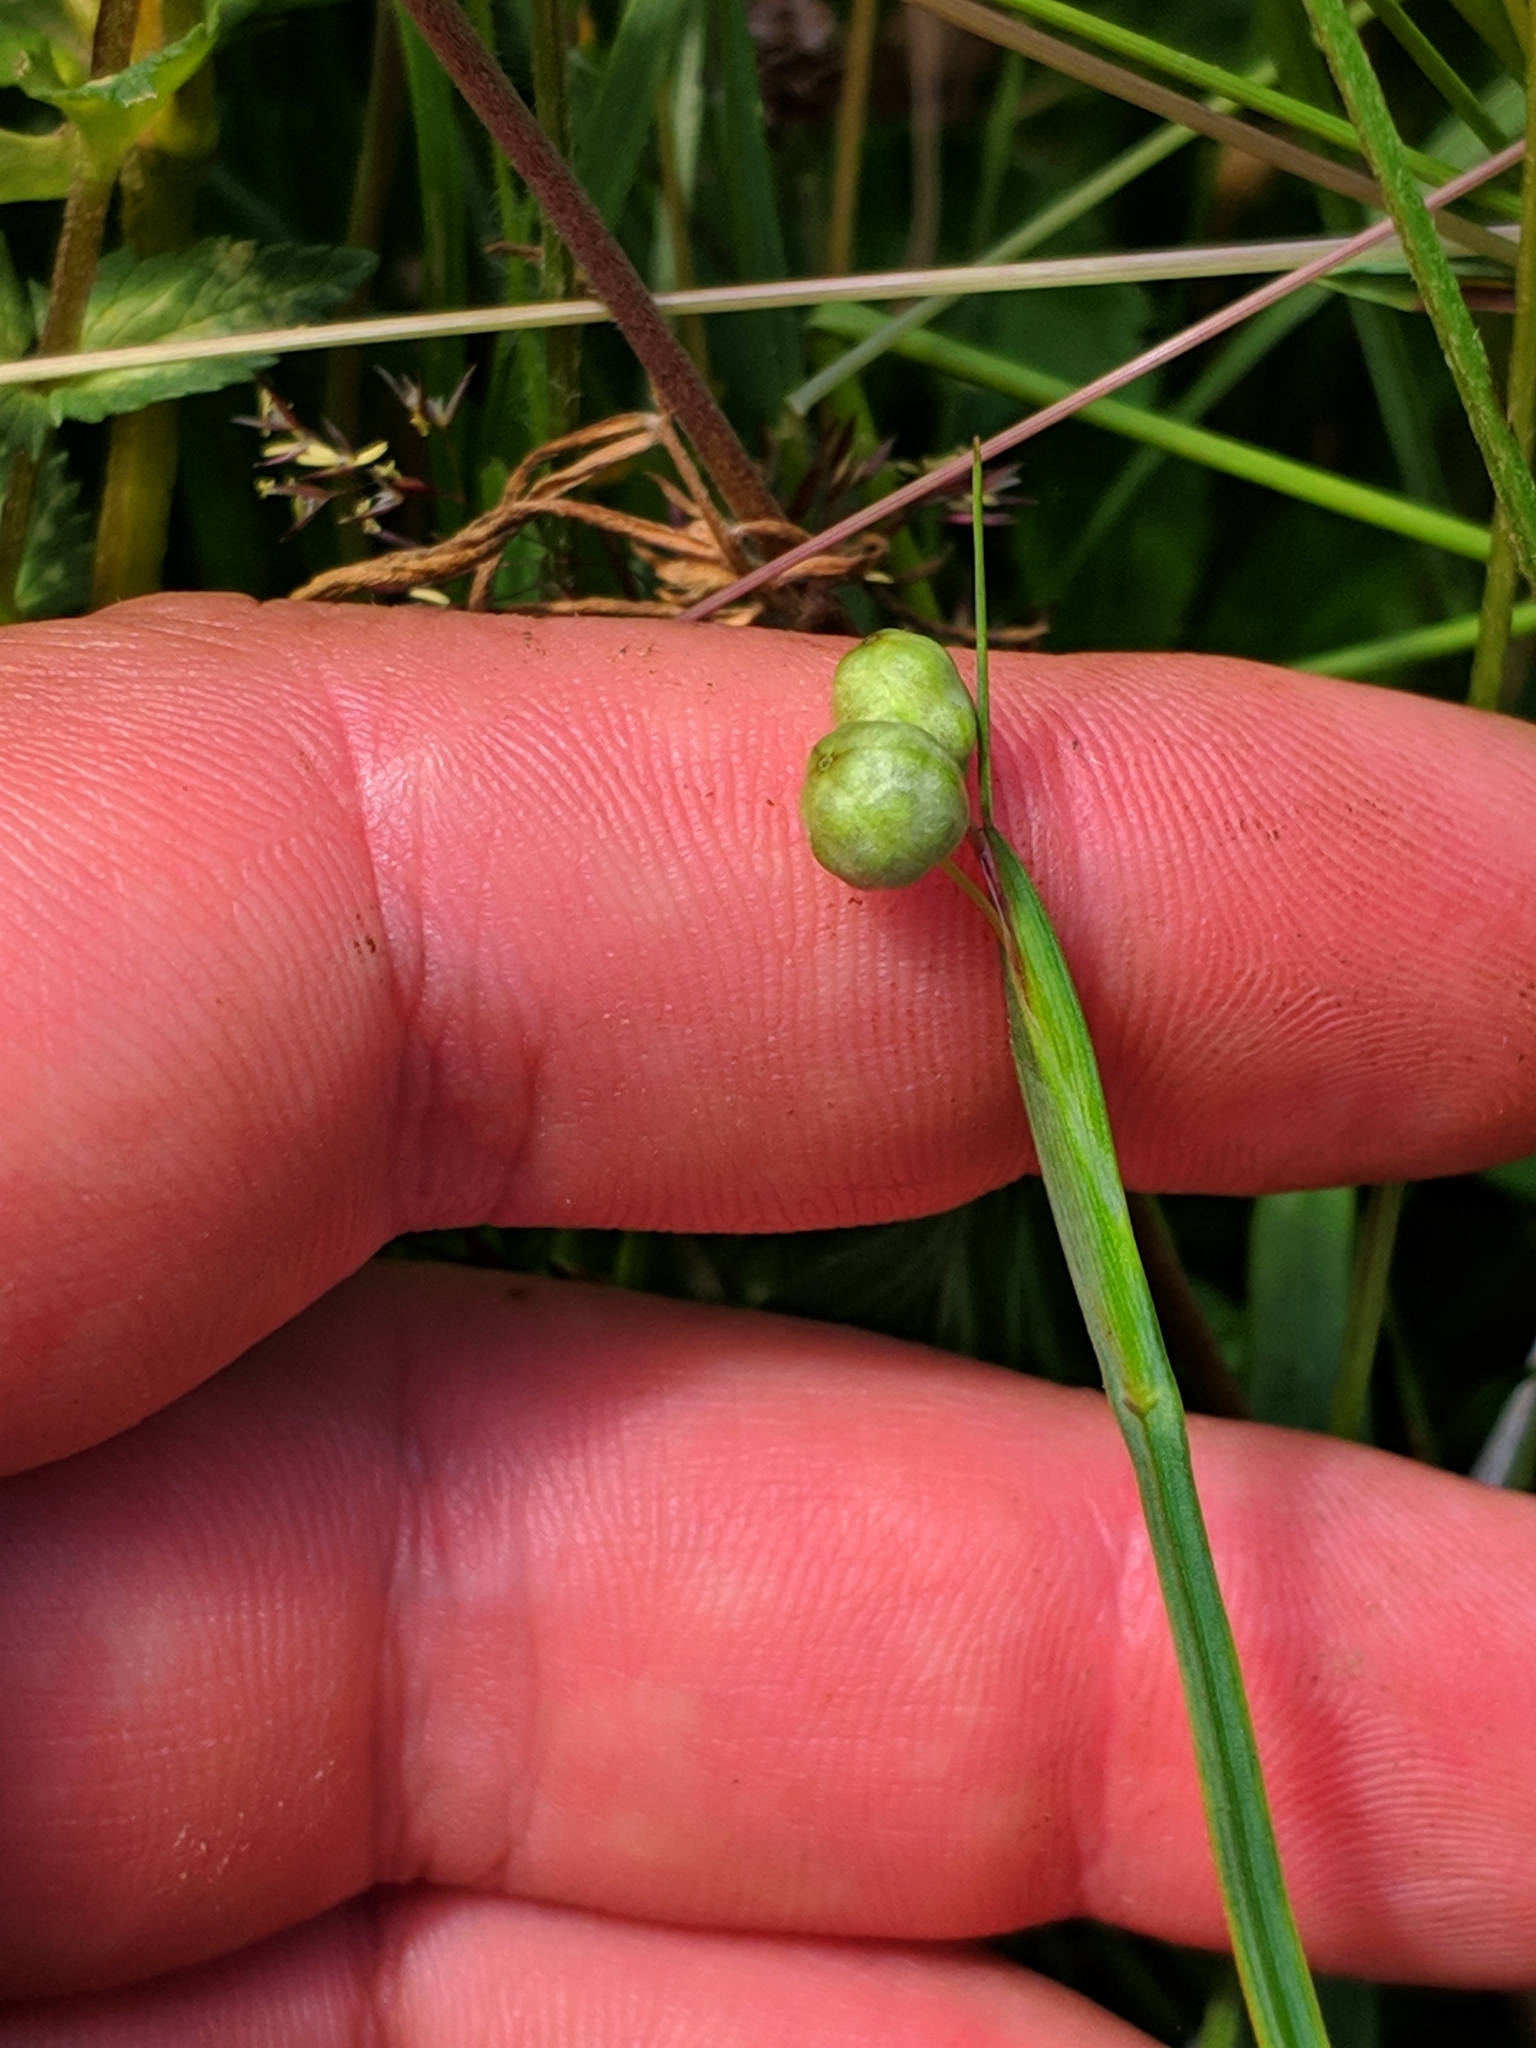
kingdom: Plantae
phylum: Tracheophyta
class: Liliopsida
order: Asparagales
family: Iridaceae
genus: Sisyrinchium
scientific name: Sisyrinchium montanum
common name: American blue-eyed-grass
